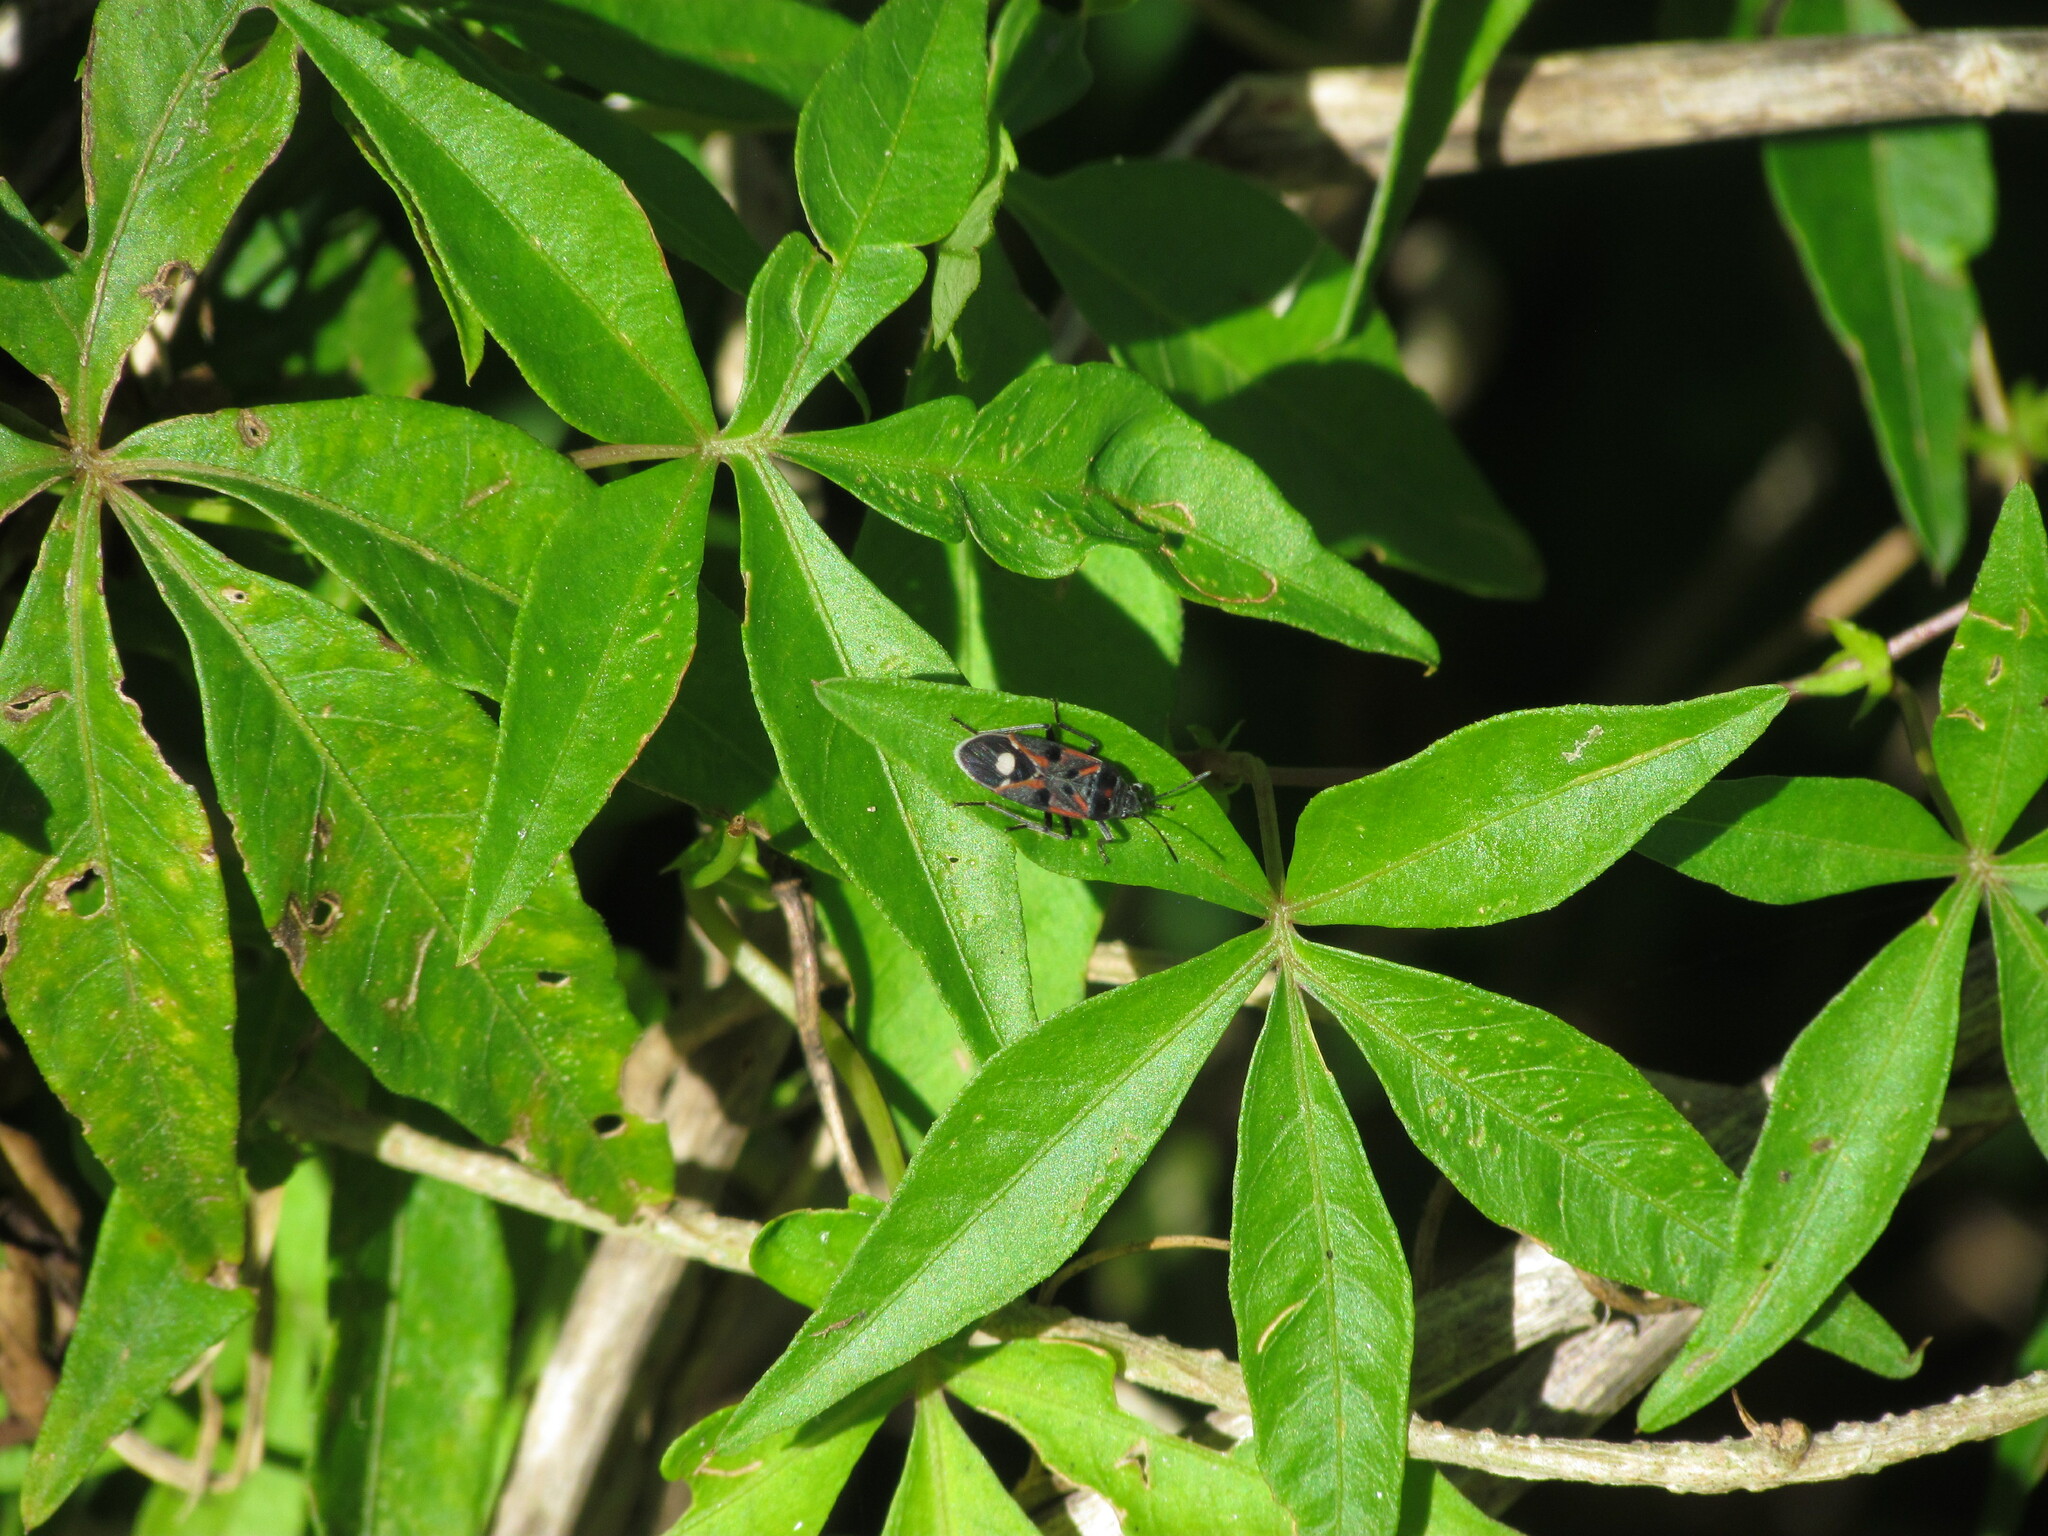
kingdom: Animalia
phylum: Arthropoda
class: Insecta
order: Hemiptera
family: Lygaeidae
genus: Lygaeus
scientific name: Lygaeus alboornatus
